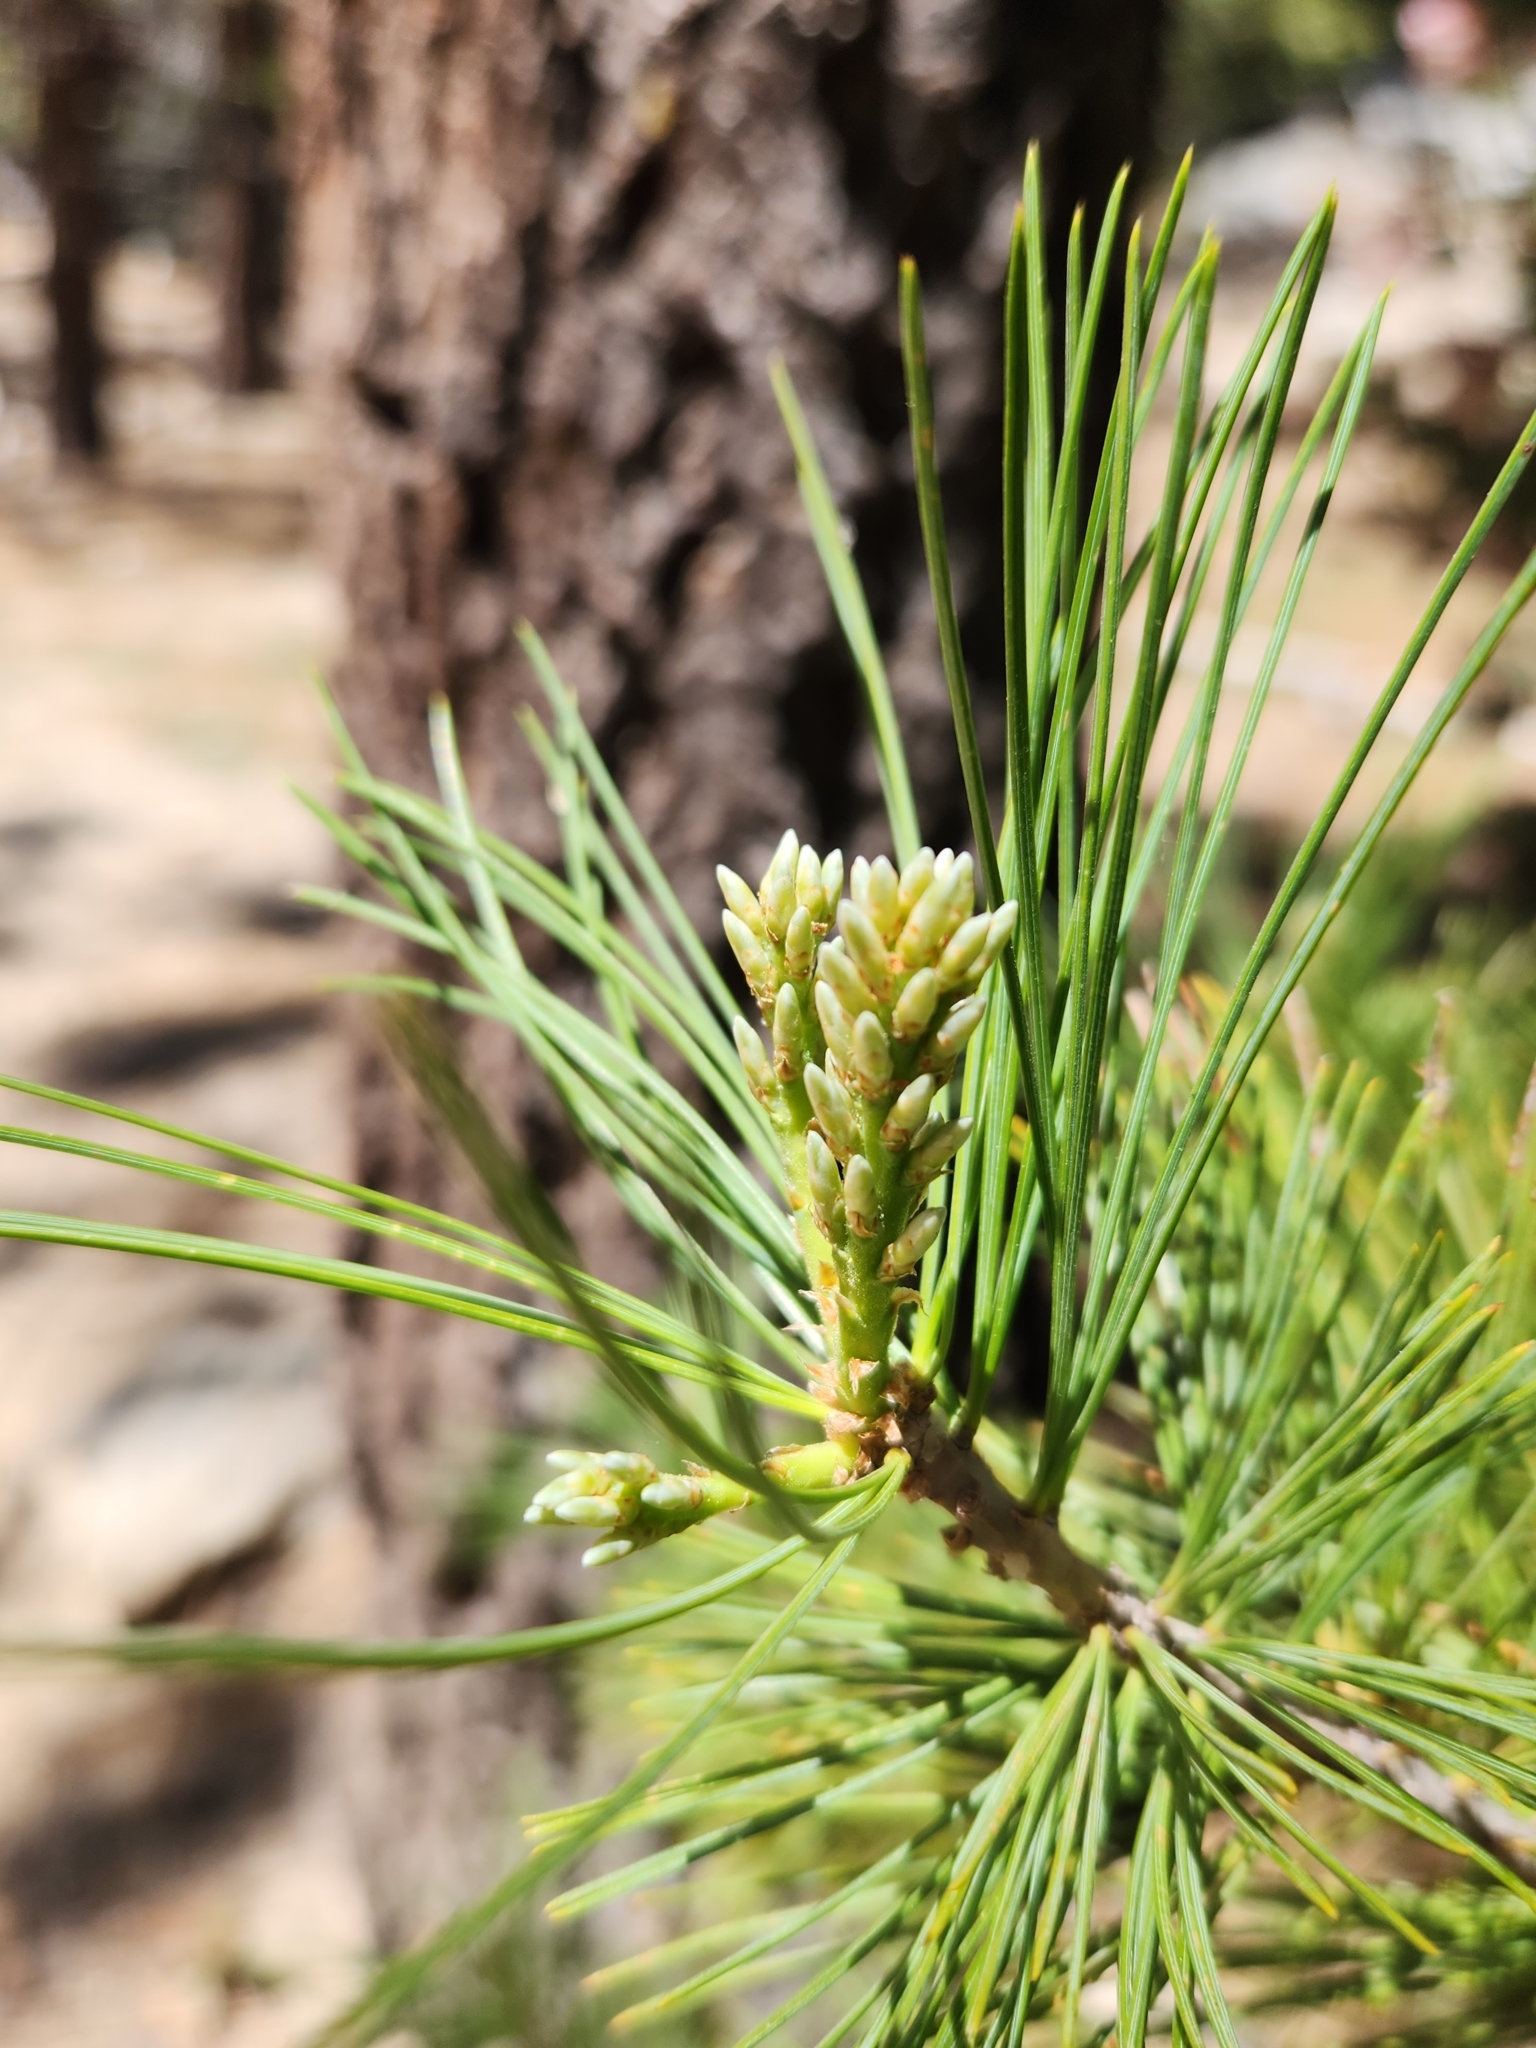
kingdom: Plantae
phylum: Tracheophyta
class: Pinopsida
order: Pinales
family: Pinaceae
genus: Pinus
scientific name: Pinus lambertiana
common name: Sugar pine
